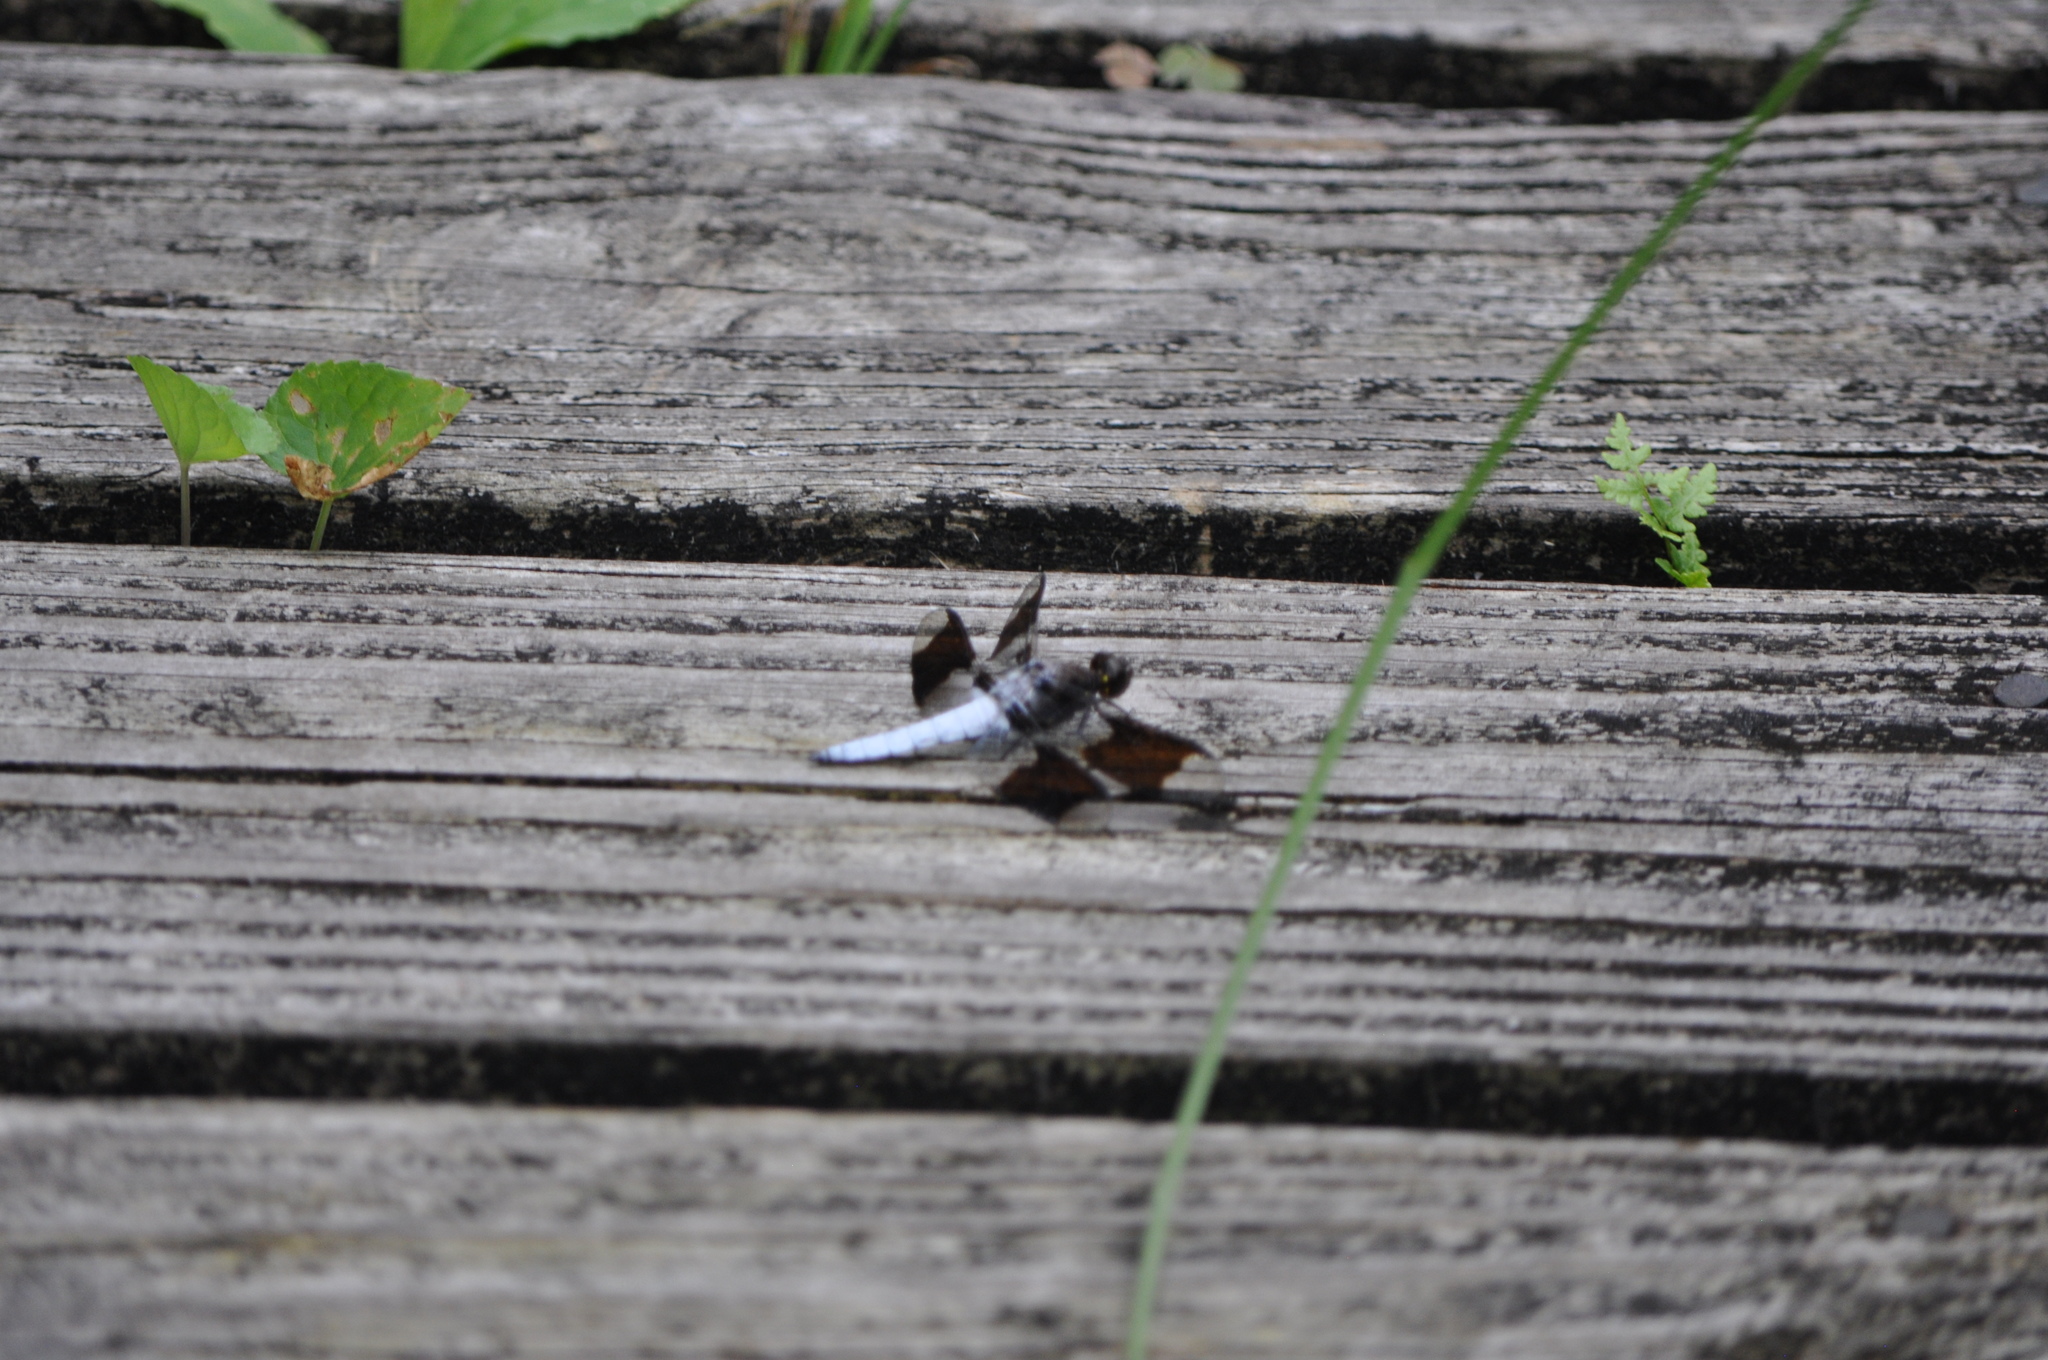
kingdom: Animalia
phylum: Arthropoda
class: Insecta
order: Odonata
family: Libellulidae
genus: Plathemis
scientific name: Plathemis lydia
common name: Common whitetail
